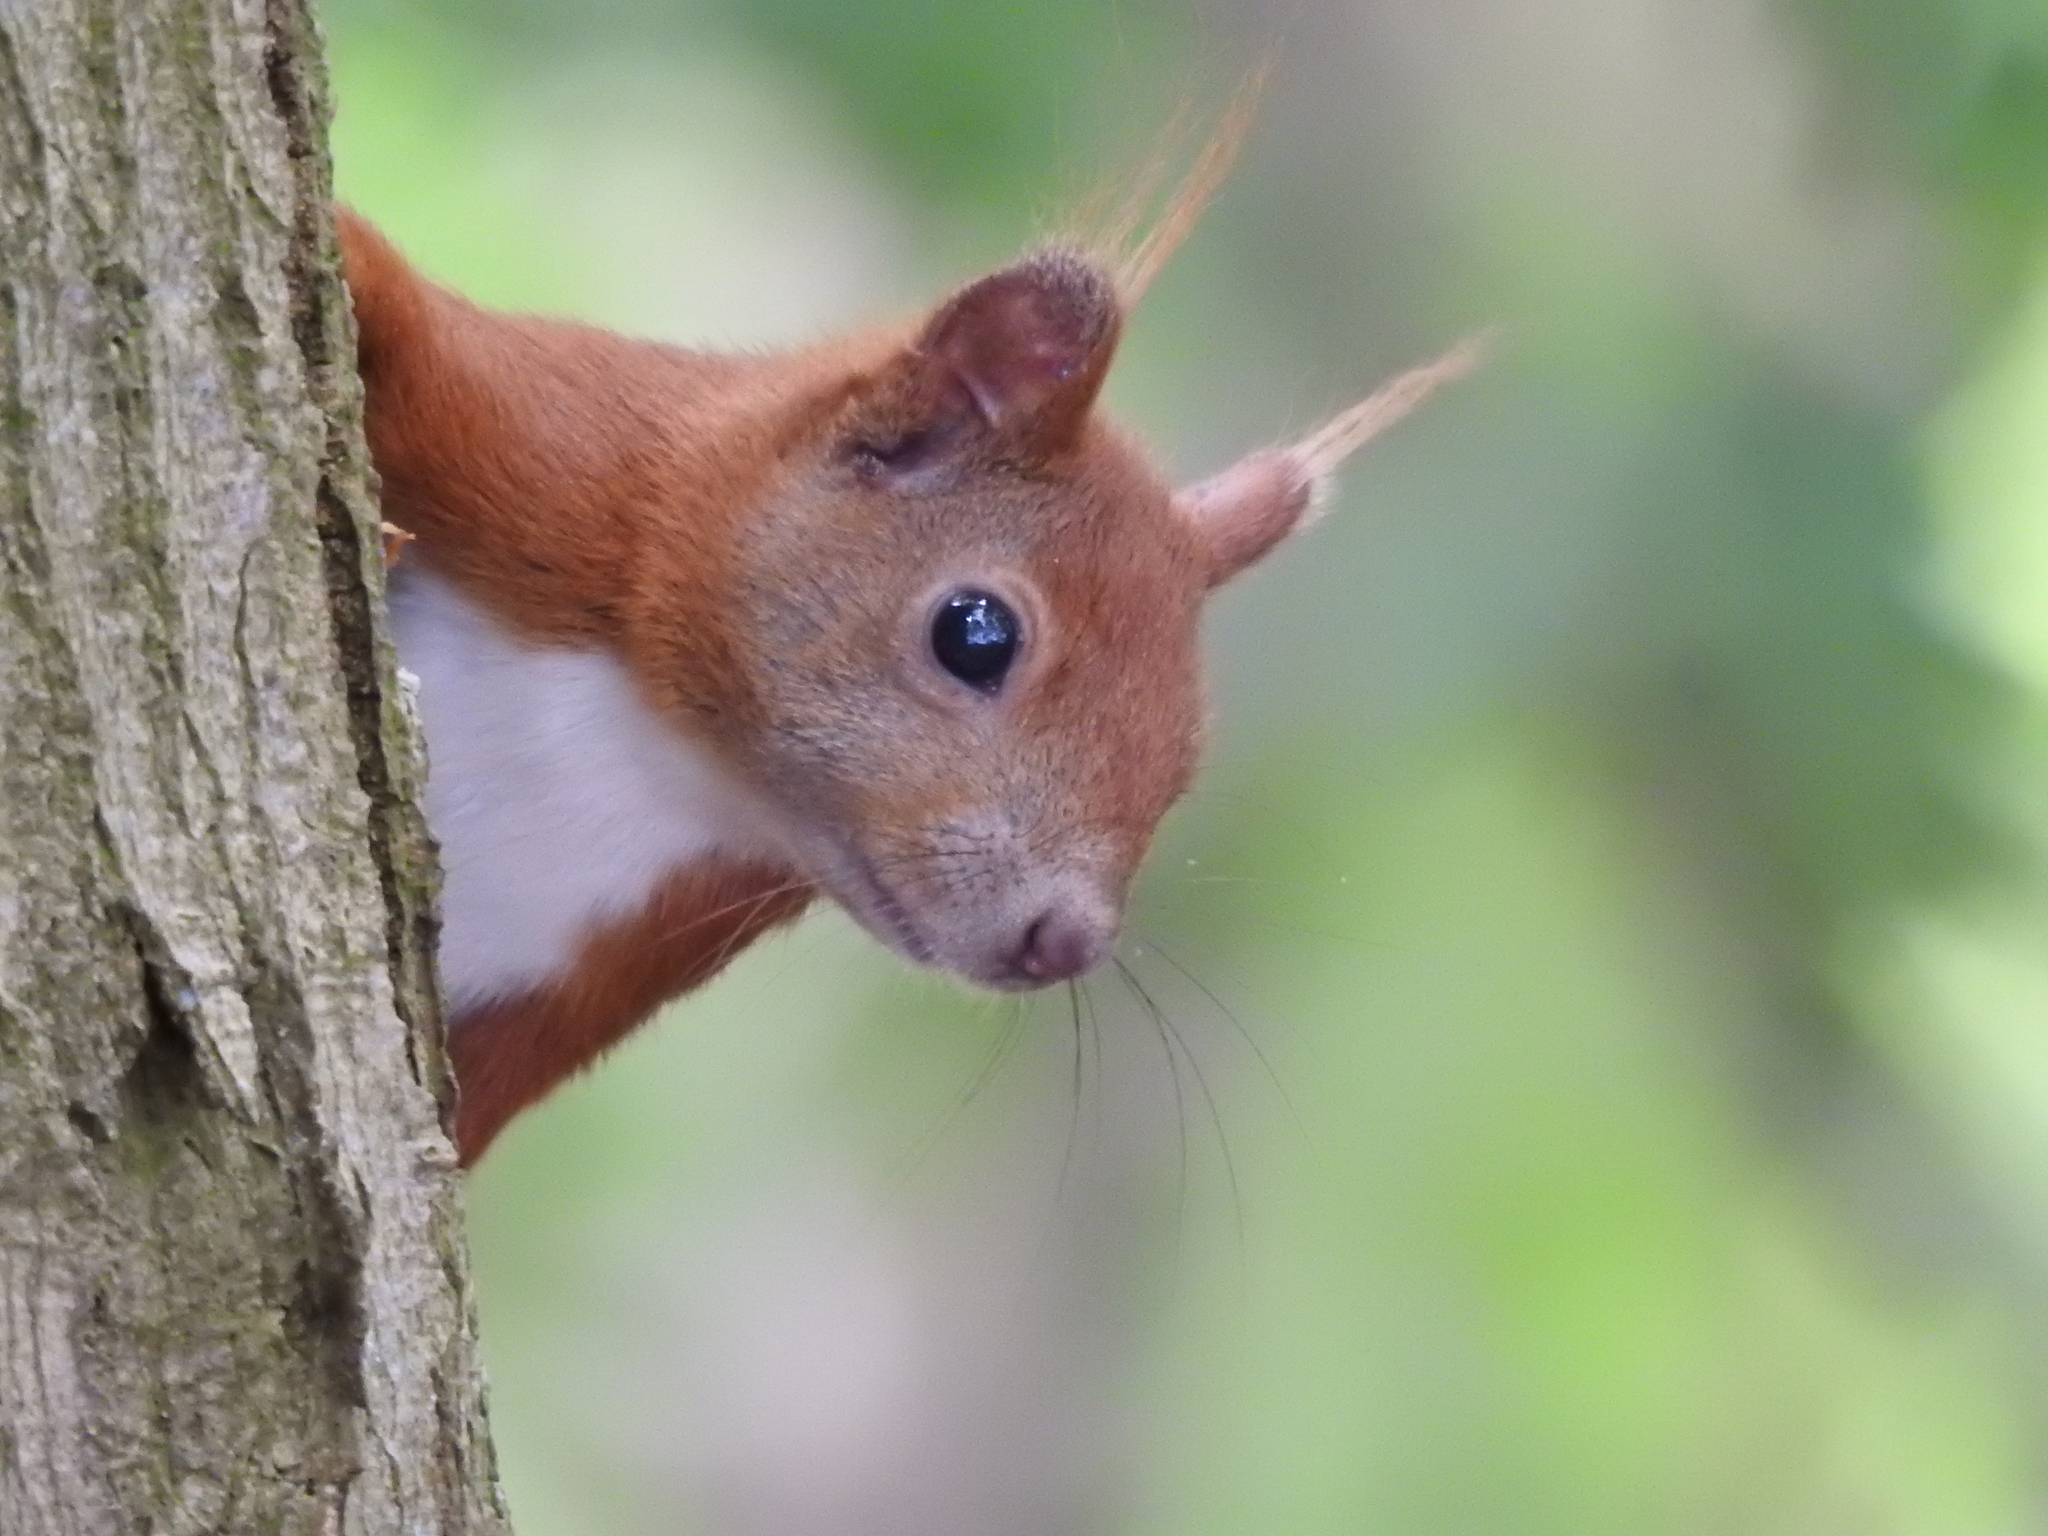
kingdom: Animalia
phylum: Chordata
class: Mammalia
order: Rodentia
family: Sciuridae
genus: Sciurus
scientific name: Sciurus vulgaris
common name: Eurasian red squirrel
